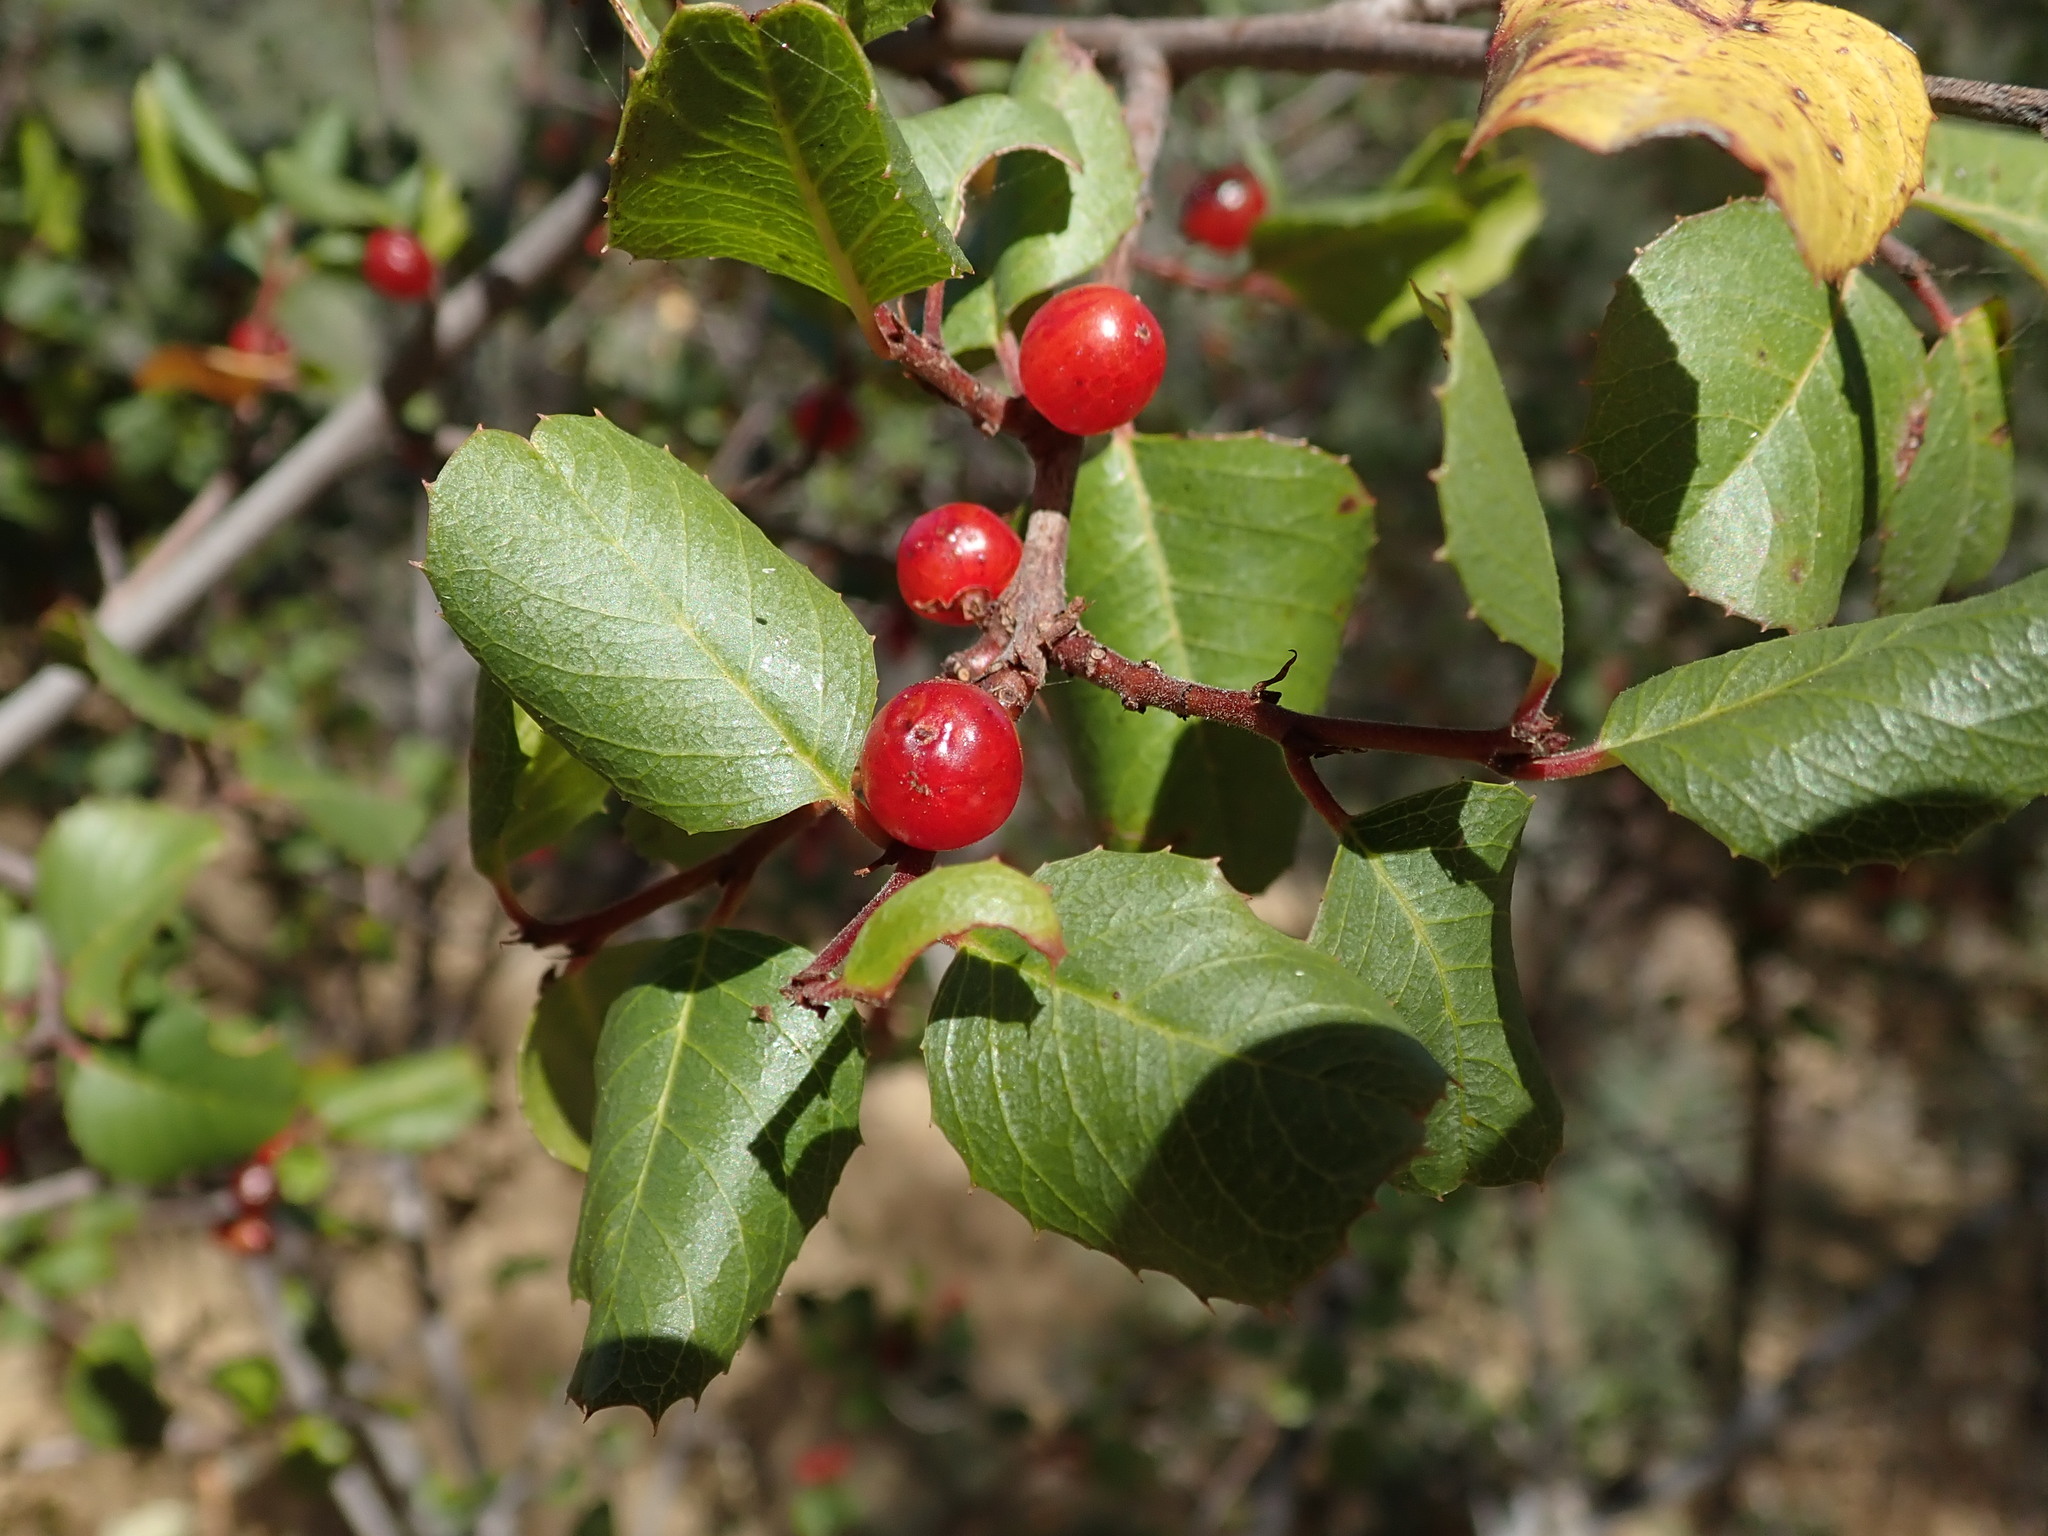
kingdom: Plantae
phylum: Tracheophyta
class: Magnoliopsida
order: Rosales
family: Rhamnaceae
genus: Endotropis
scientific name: Endotropis crocea
